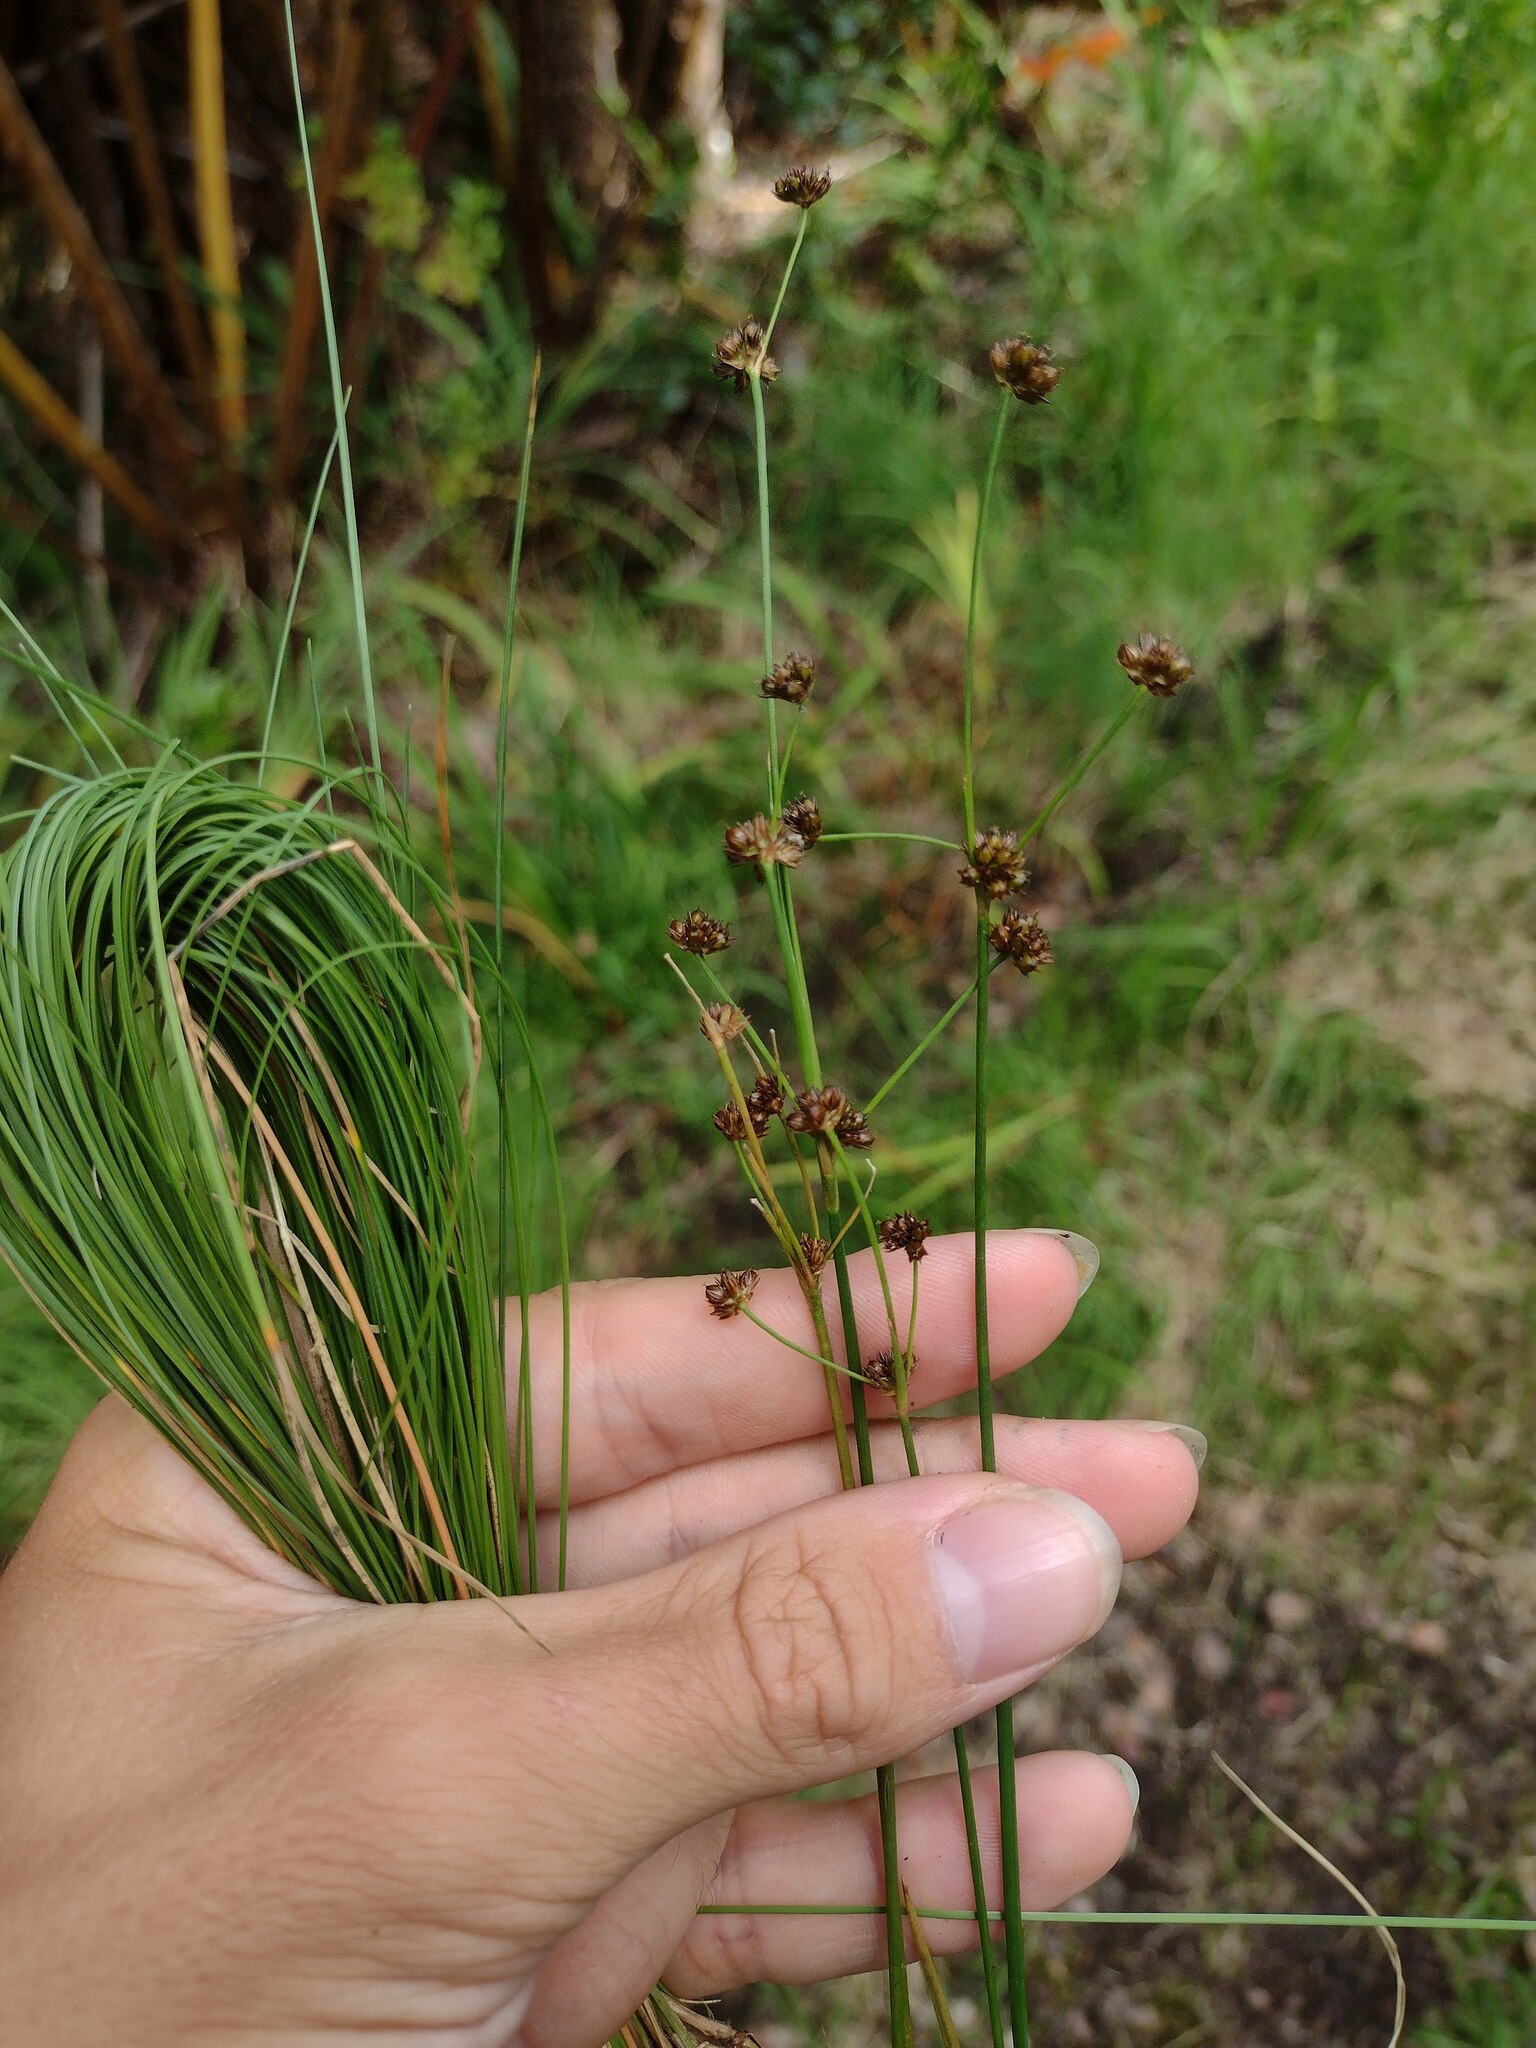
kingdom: Plantae
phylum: Tracheophyta
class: Liliopsida
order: Poales
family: Juncaceae
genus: Juncus
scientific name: Juncus planifolius
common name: Broadleaf rush
